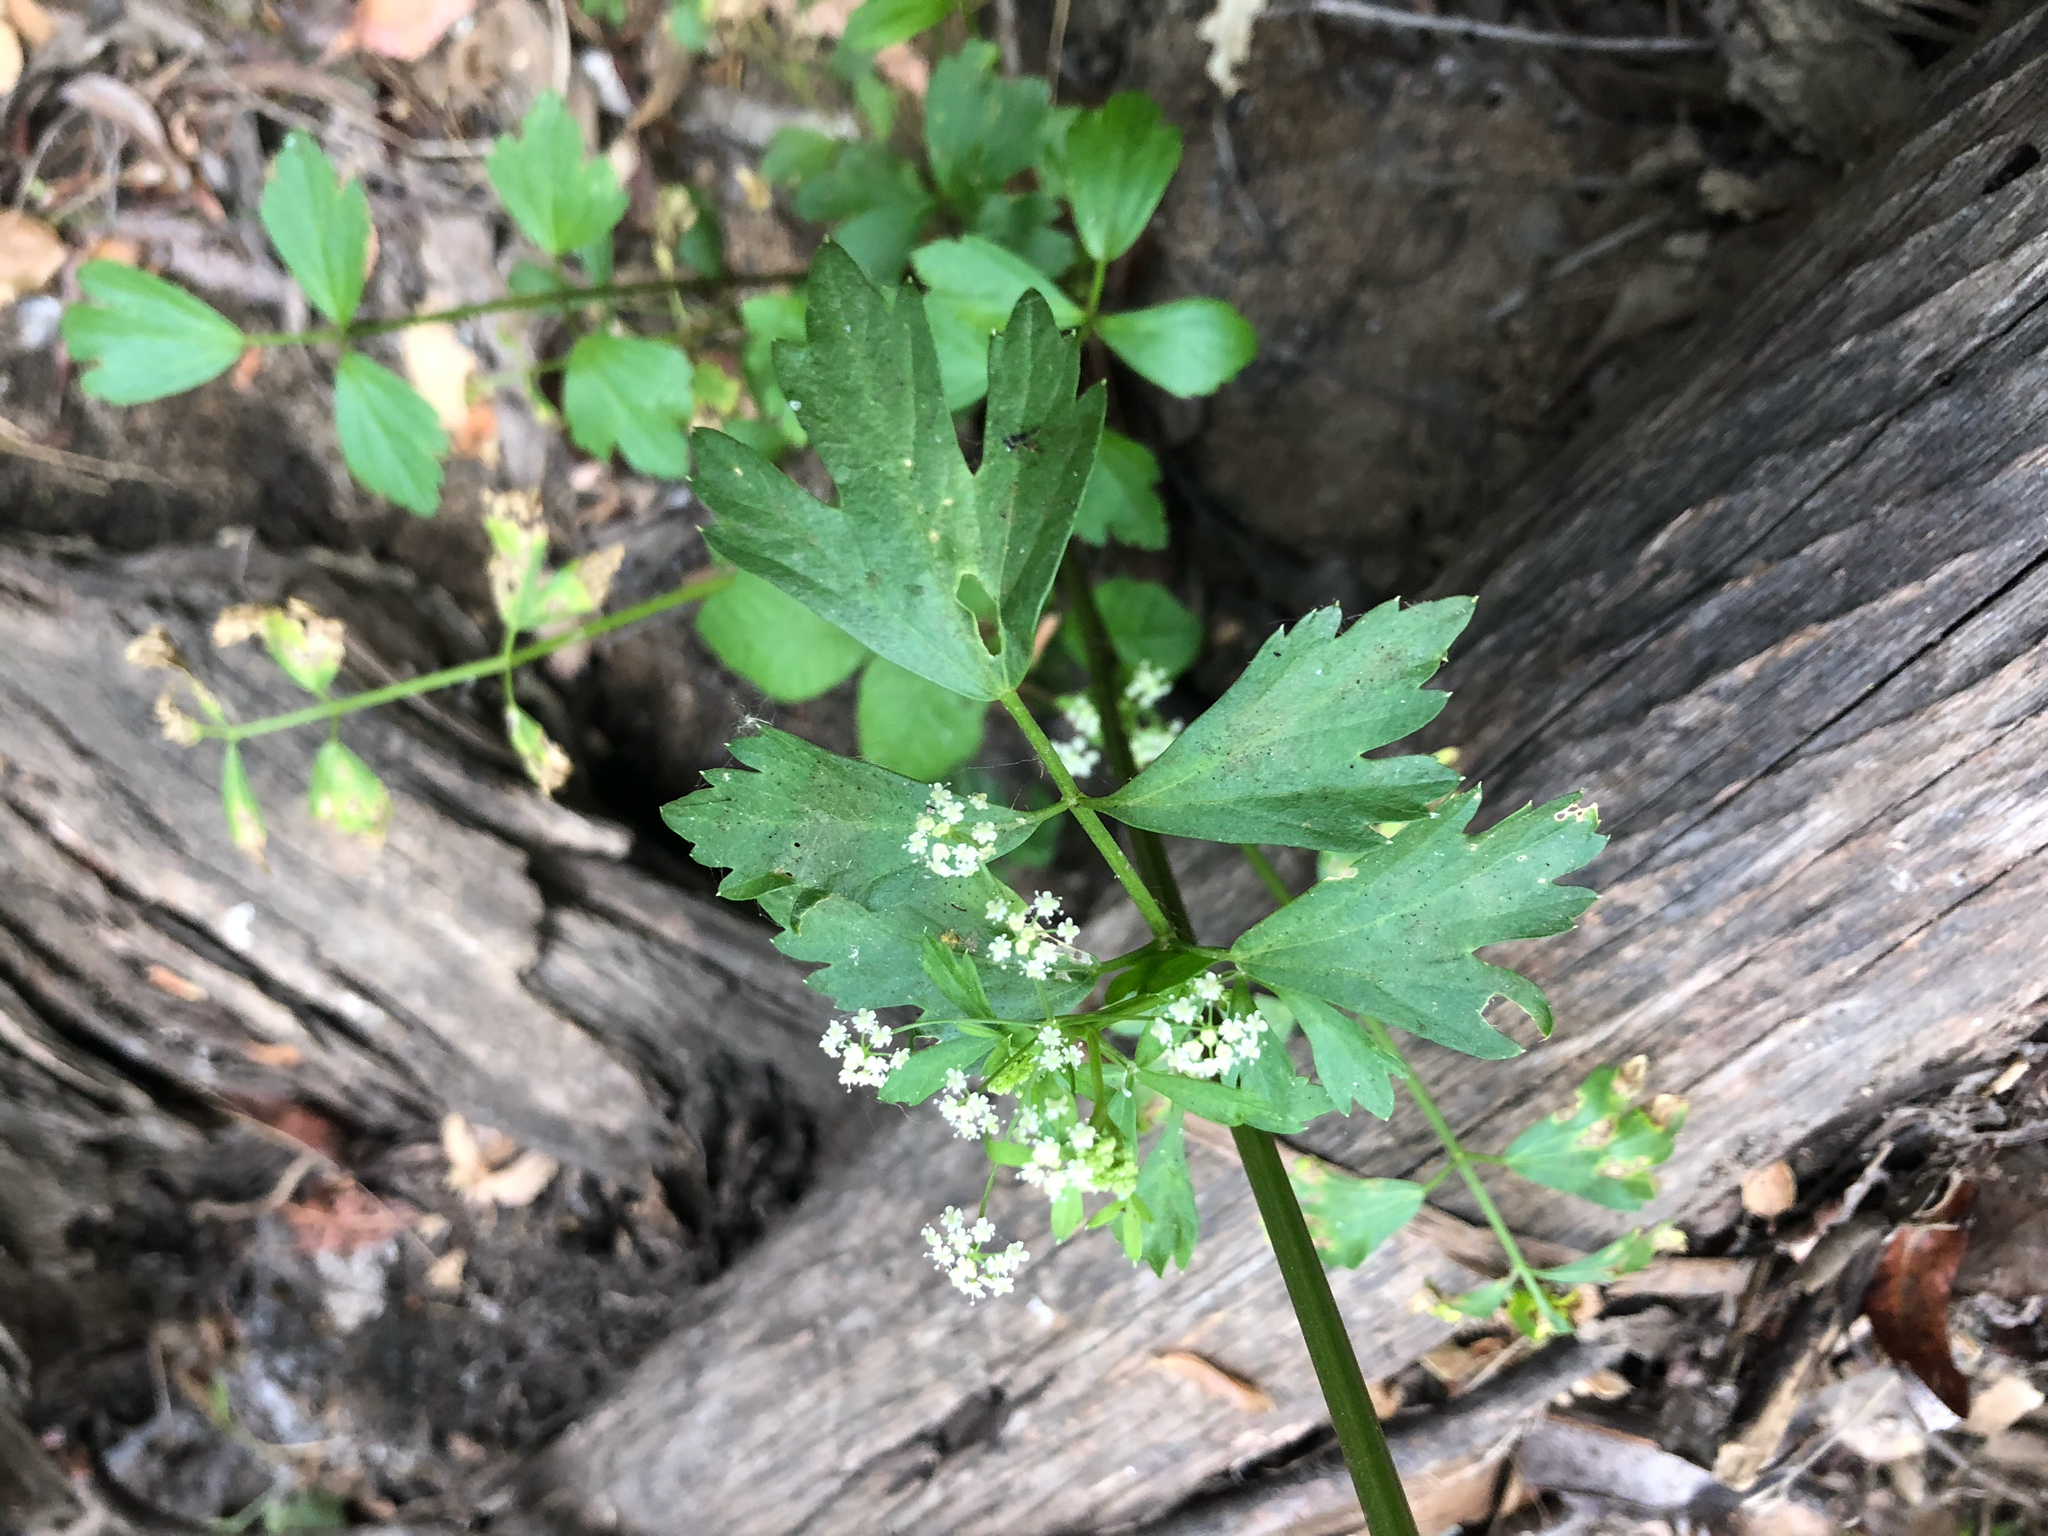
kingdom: Plantae
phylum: Tracheophyta
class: Magnoliopsida
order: Apiales
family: Apiaceae
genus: Apium
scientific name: Apium graveolens
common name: Wild celery
